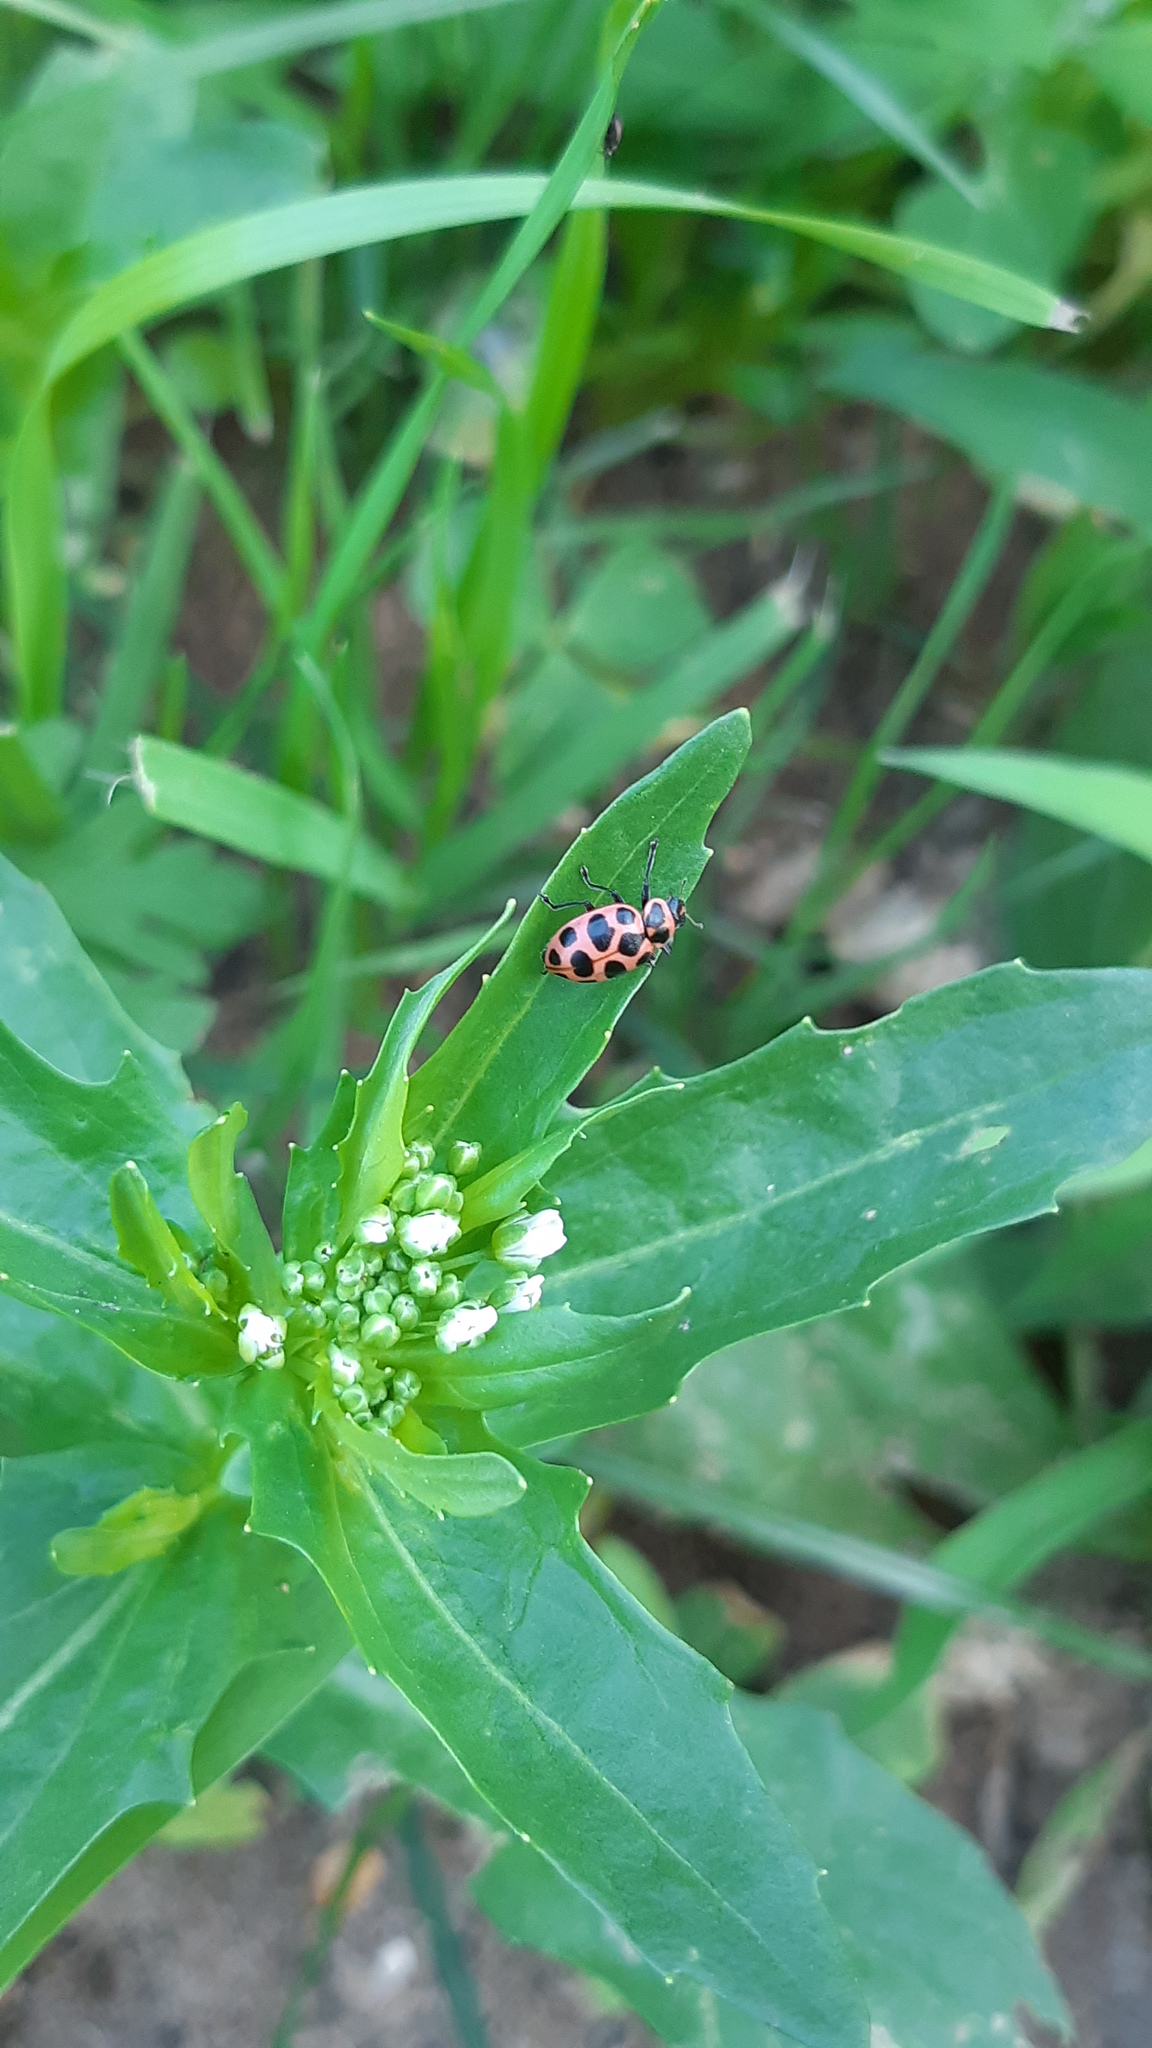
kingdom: Animalia
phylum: Arthropoda
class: Insecta
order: Coleoptera
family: Coccinellidae
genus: Coleomegilla
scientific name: Coleomegilla maculata
